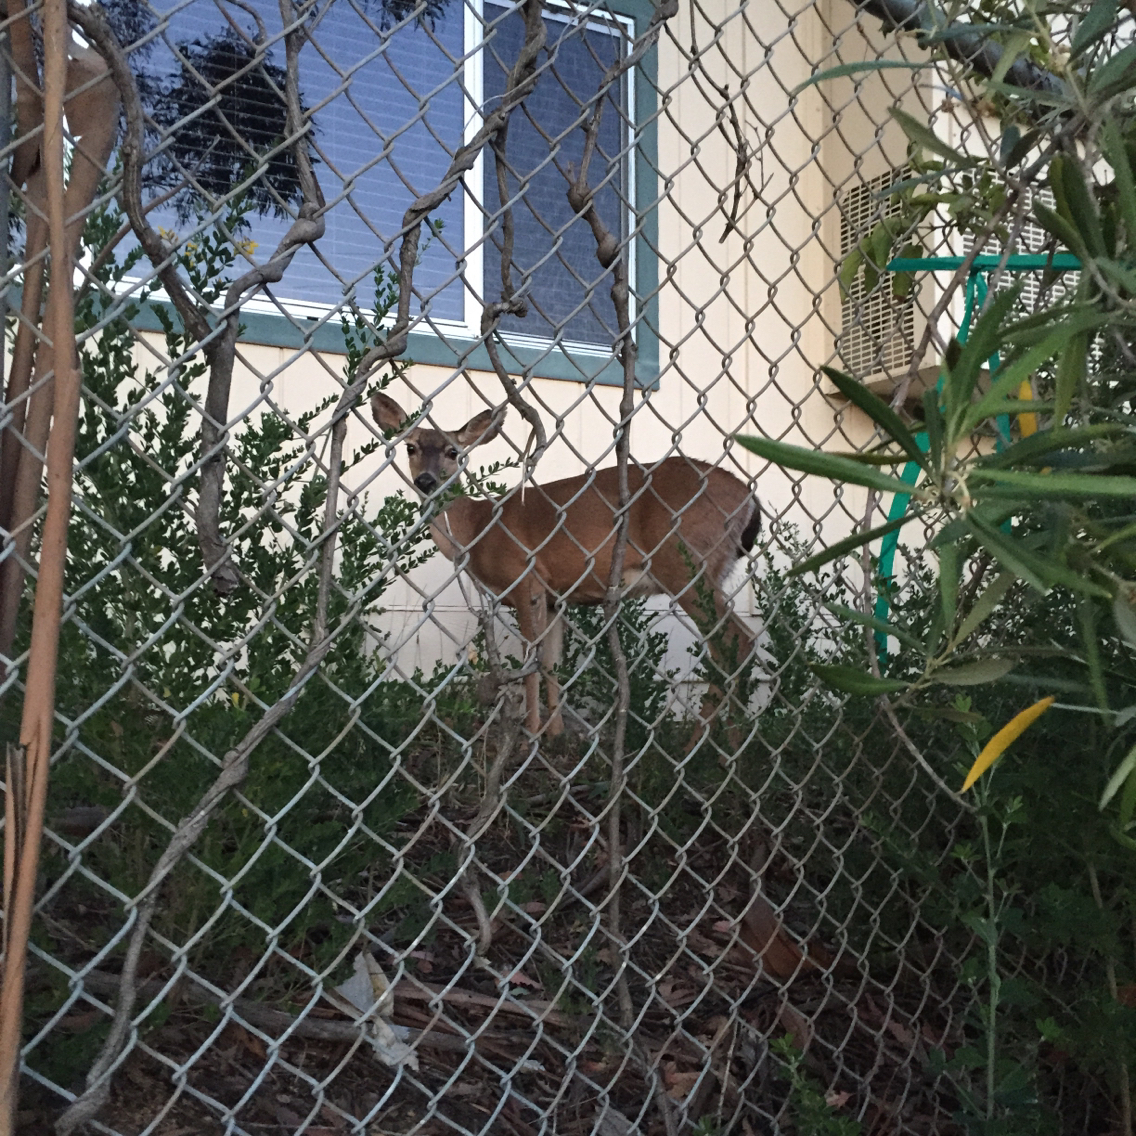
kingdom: Animalia
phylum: Chordata
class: Mammalia
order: Artiodactyla
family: Cervidae
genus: Odocoileus
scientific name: Odocoileus hemionus
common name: Mule deer
